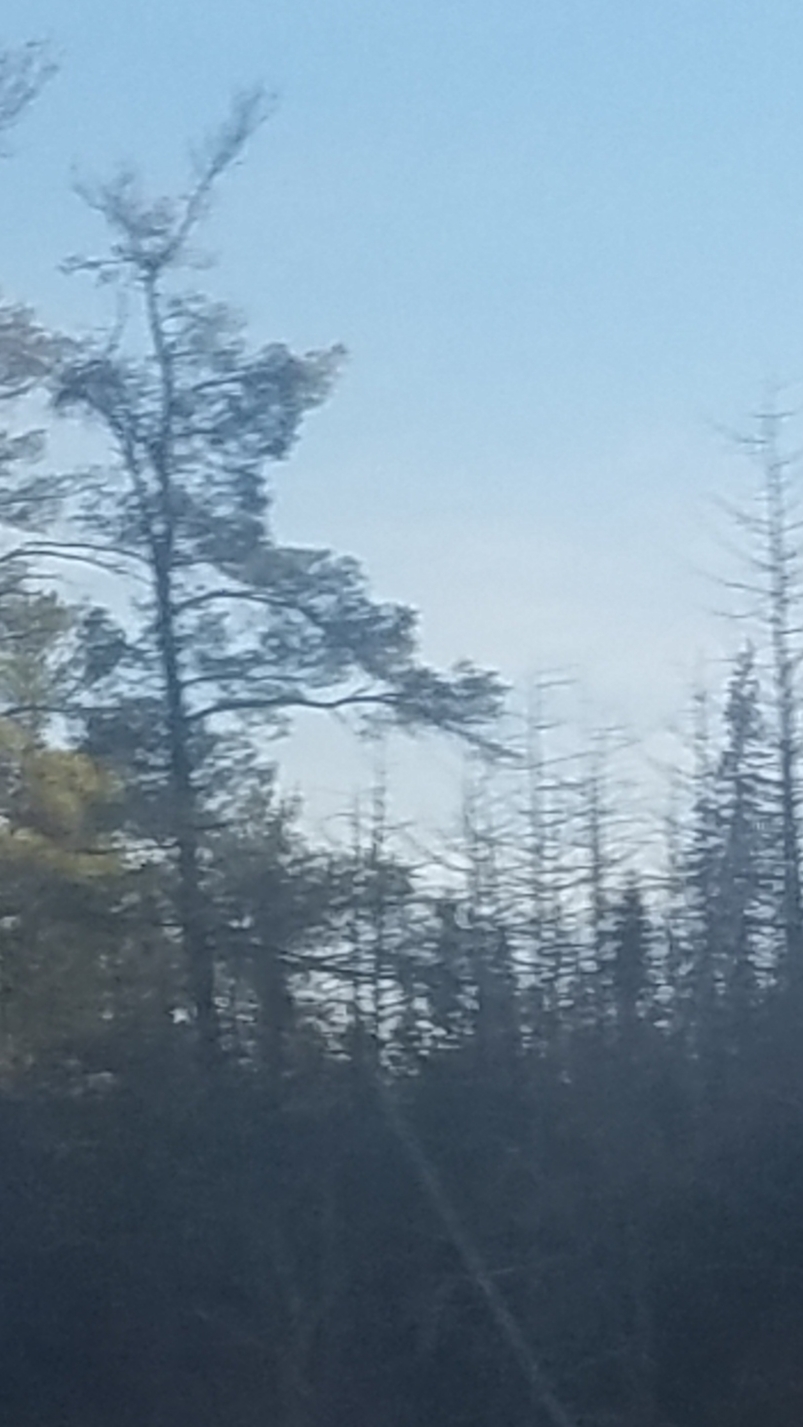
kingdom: Plantae
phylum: Tracheophyta
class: Pinopsida
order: Pinales
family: Pinaceae
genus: Picea
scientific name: Picea mariana
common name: Black spruce
